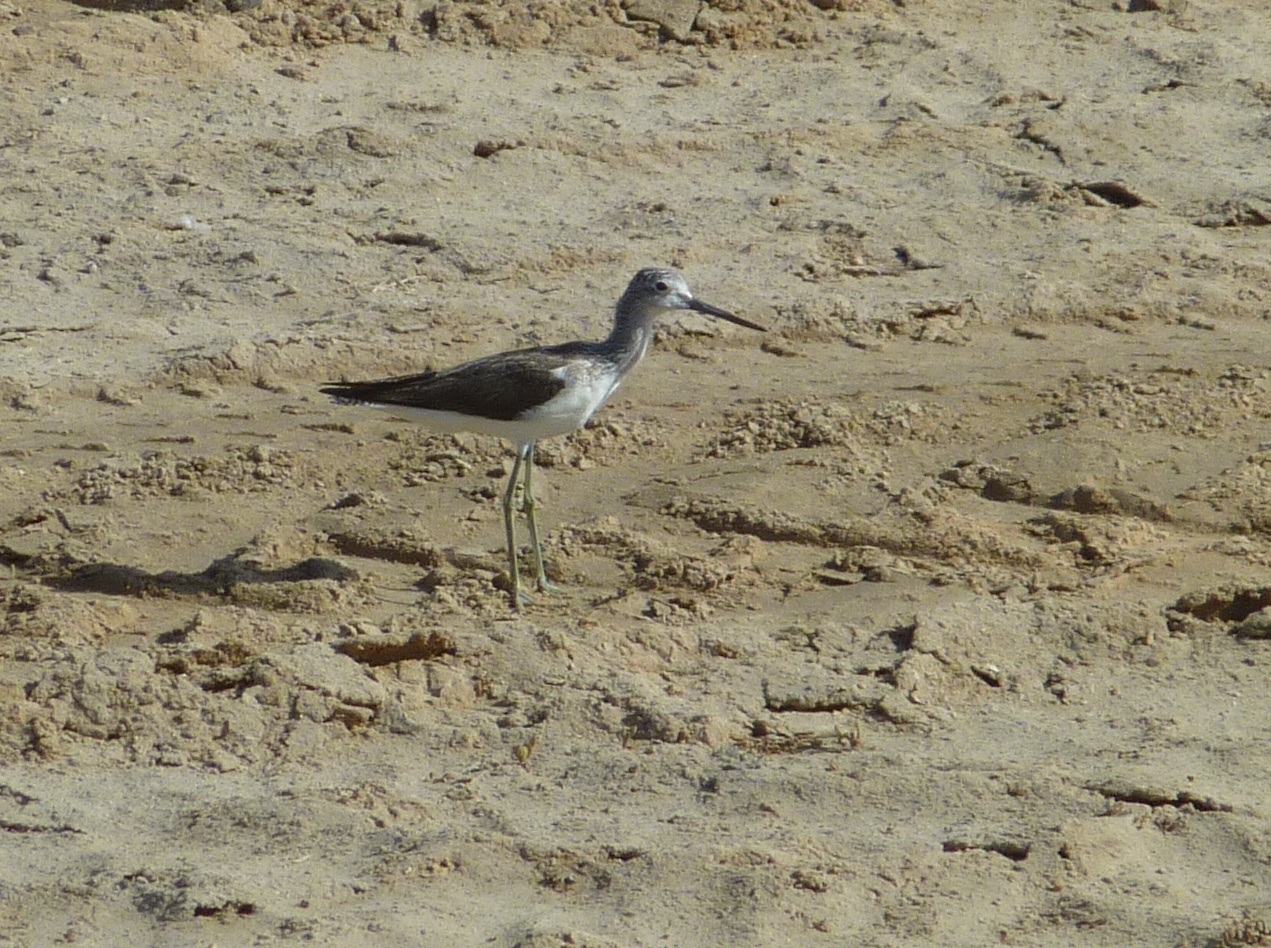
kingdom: Animalia
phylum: Chordata
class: Aves
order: Charadriiformes
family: Scolopacidae
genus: Tringa
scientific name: Tringa nebularia
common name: Common greenshank
